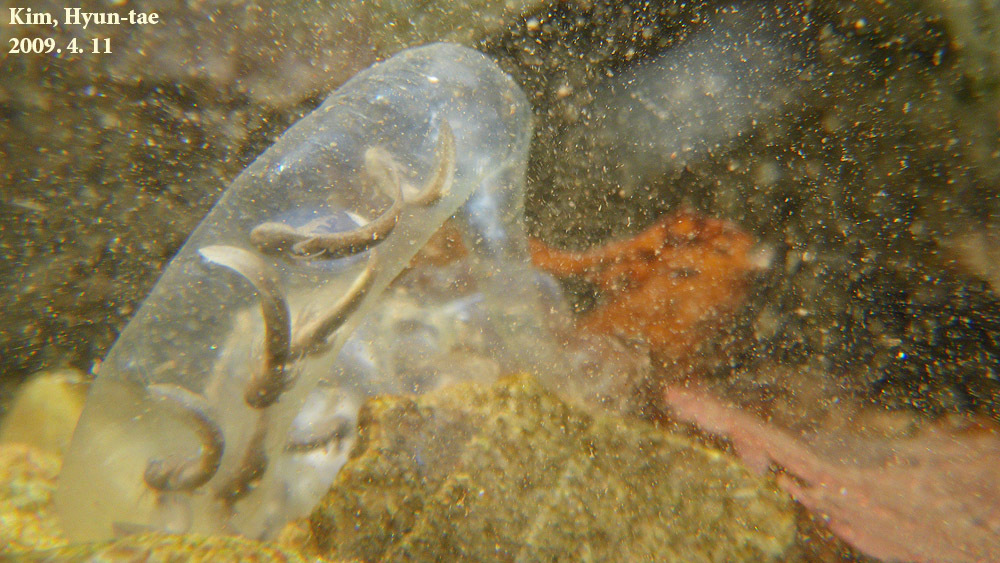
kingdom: Animalia
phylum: Chordata
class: Amphibia
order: Caudata
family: Hynobiidae
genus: Hynobius
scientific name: Hynobius leechii
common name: Gensan salamander
